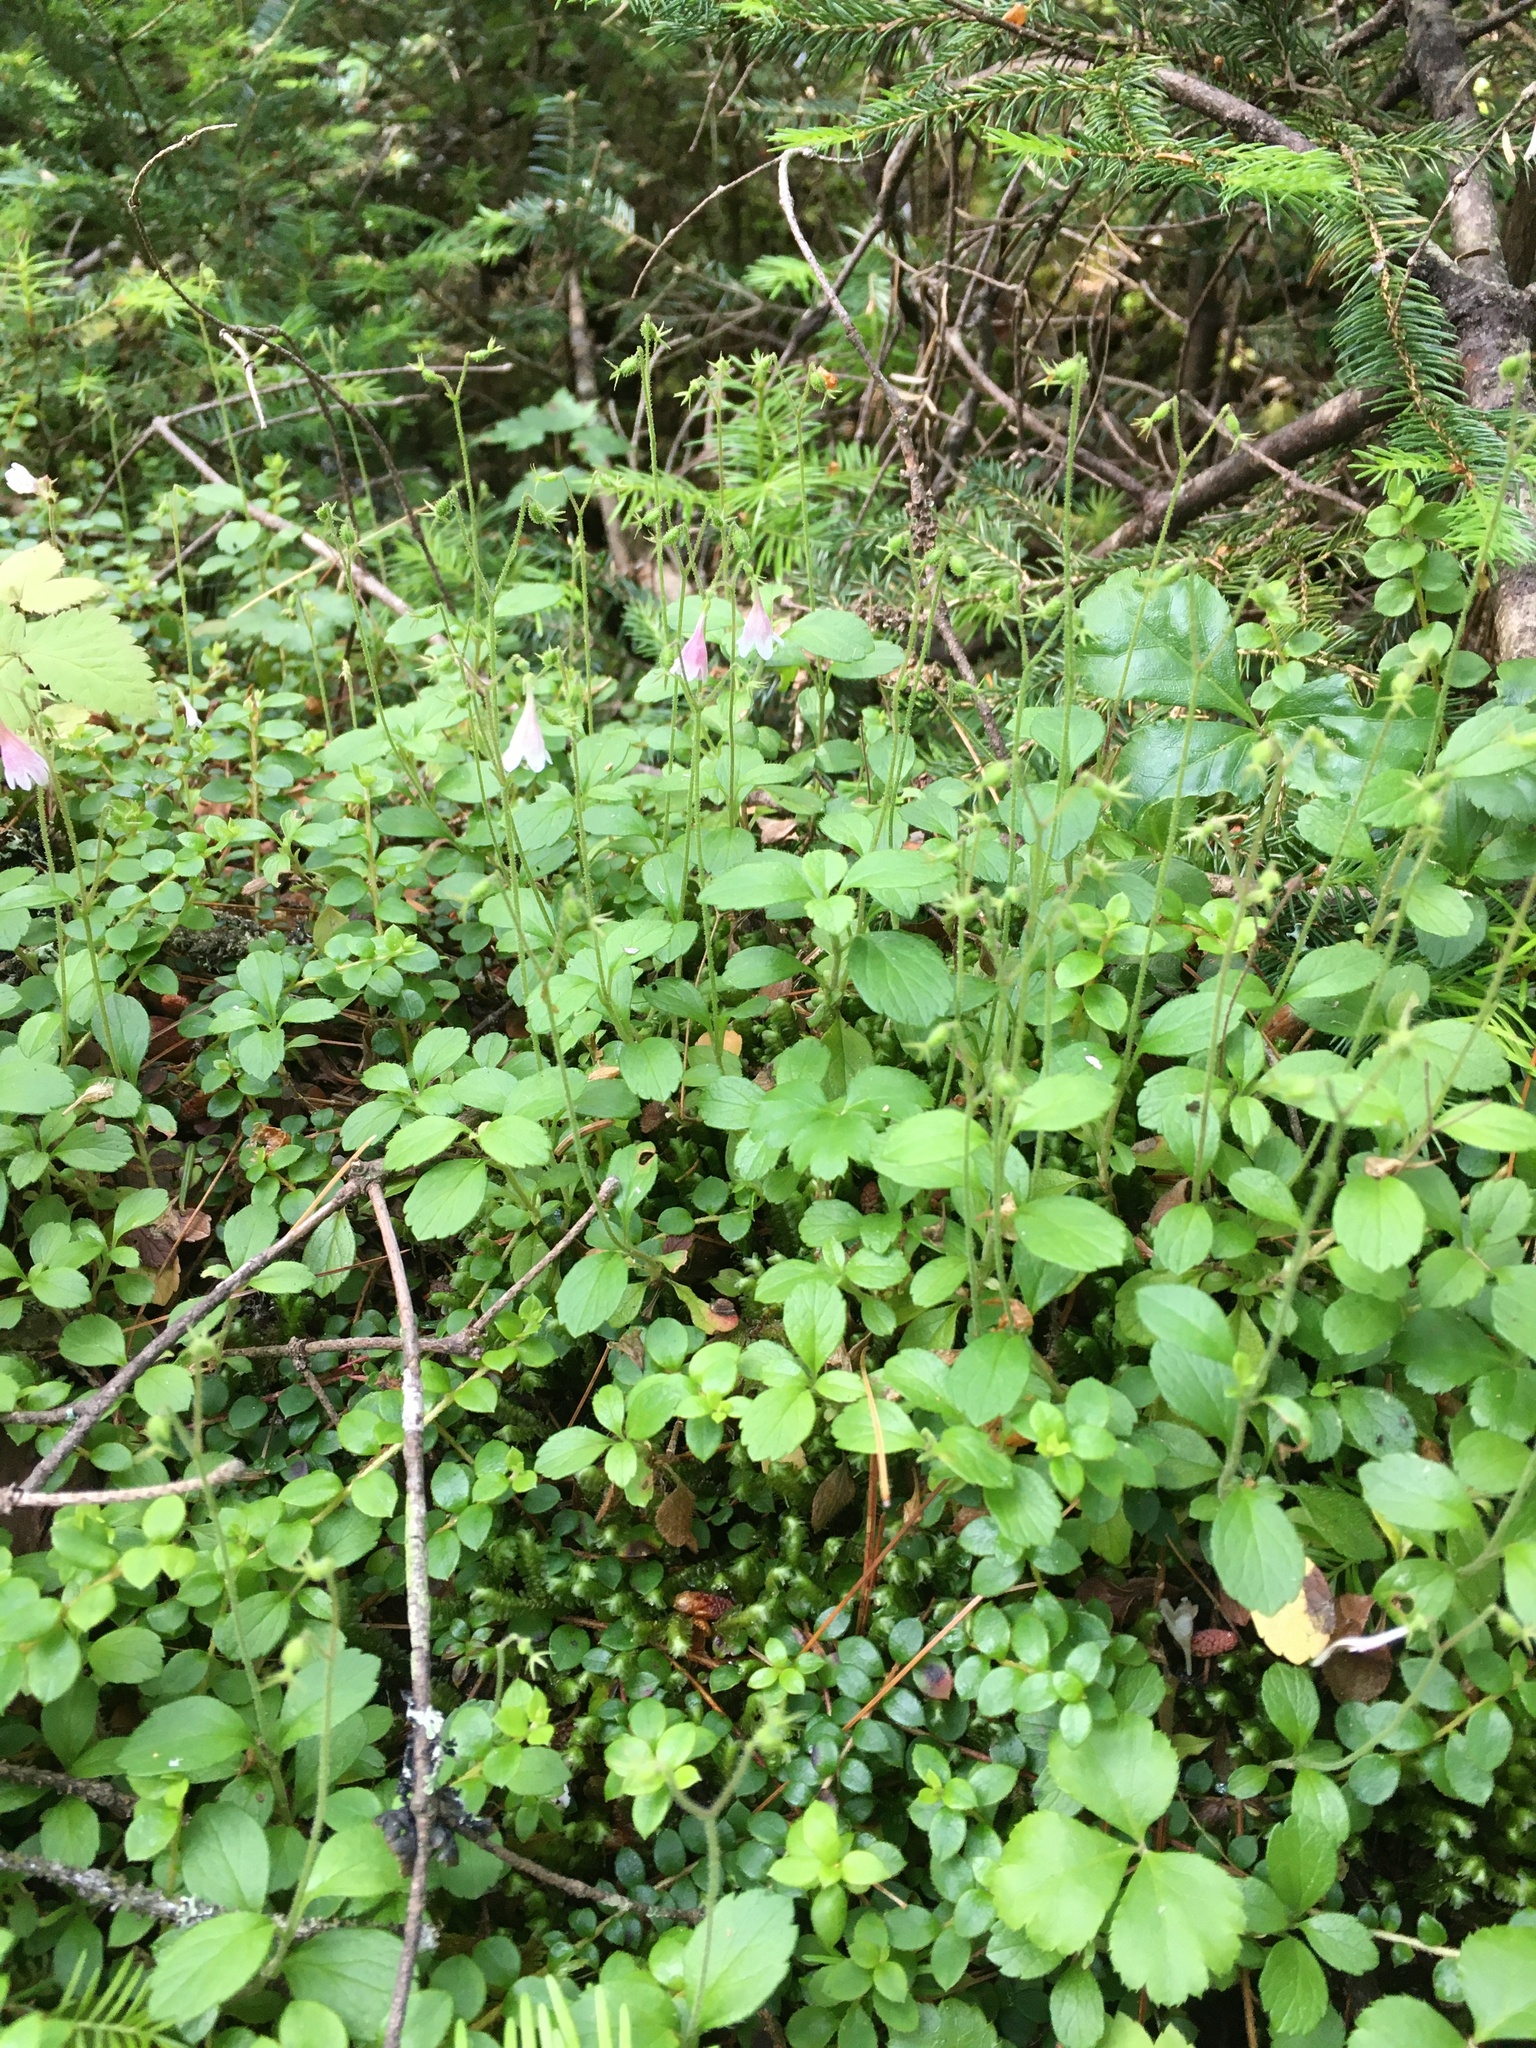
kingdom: Plantae
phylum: Tracheophyta
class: Magnoliopsida
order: Dipsacales
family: Caprifoliaceae
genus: Linnaea
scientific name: Linnaea borealis
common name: Twinflower
